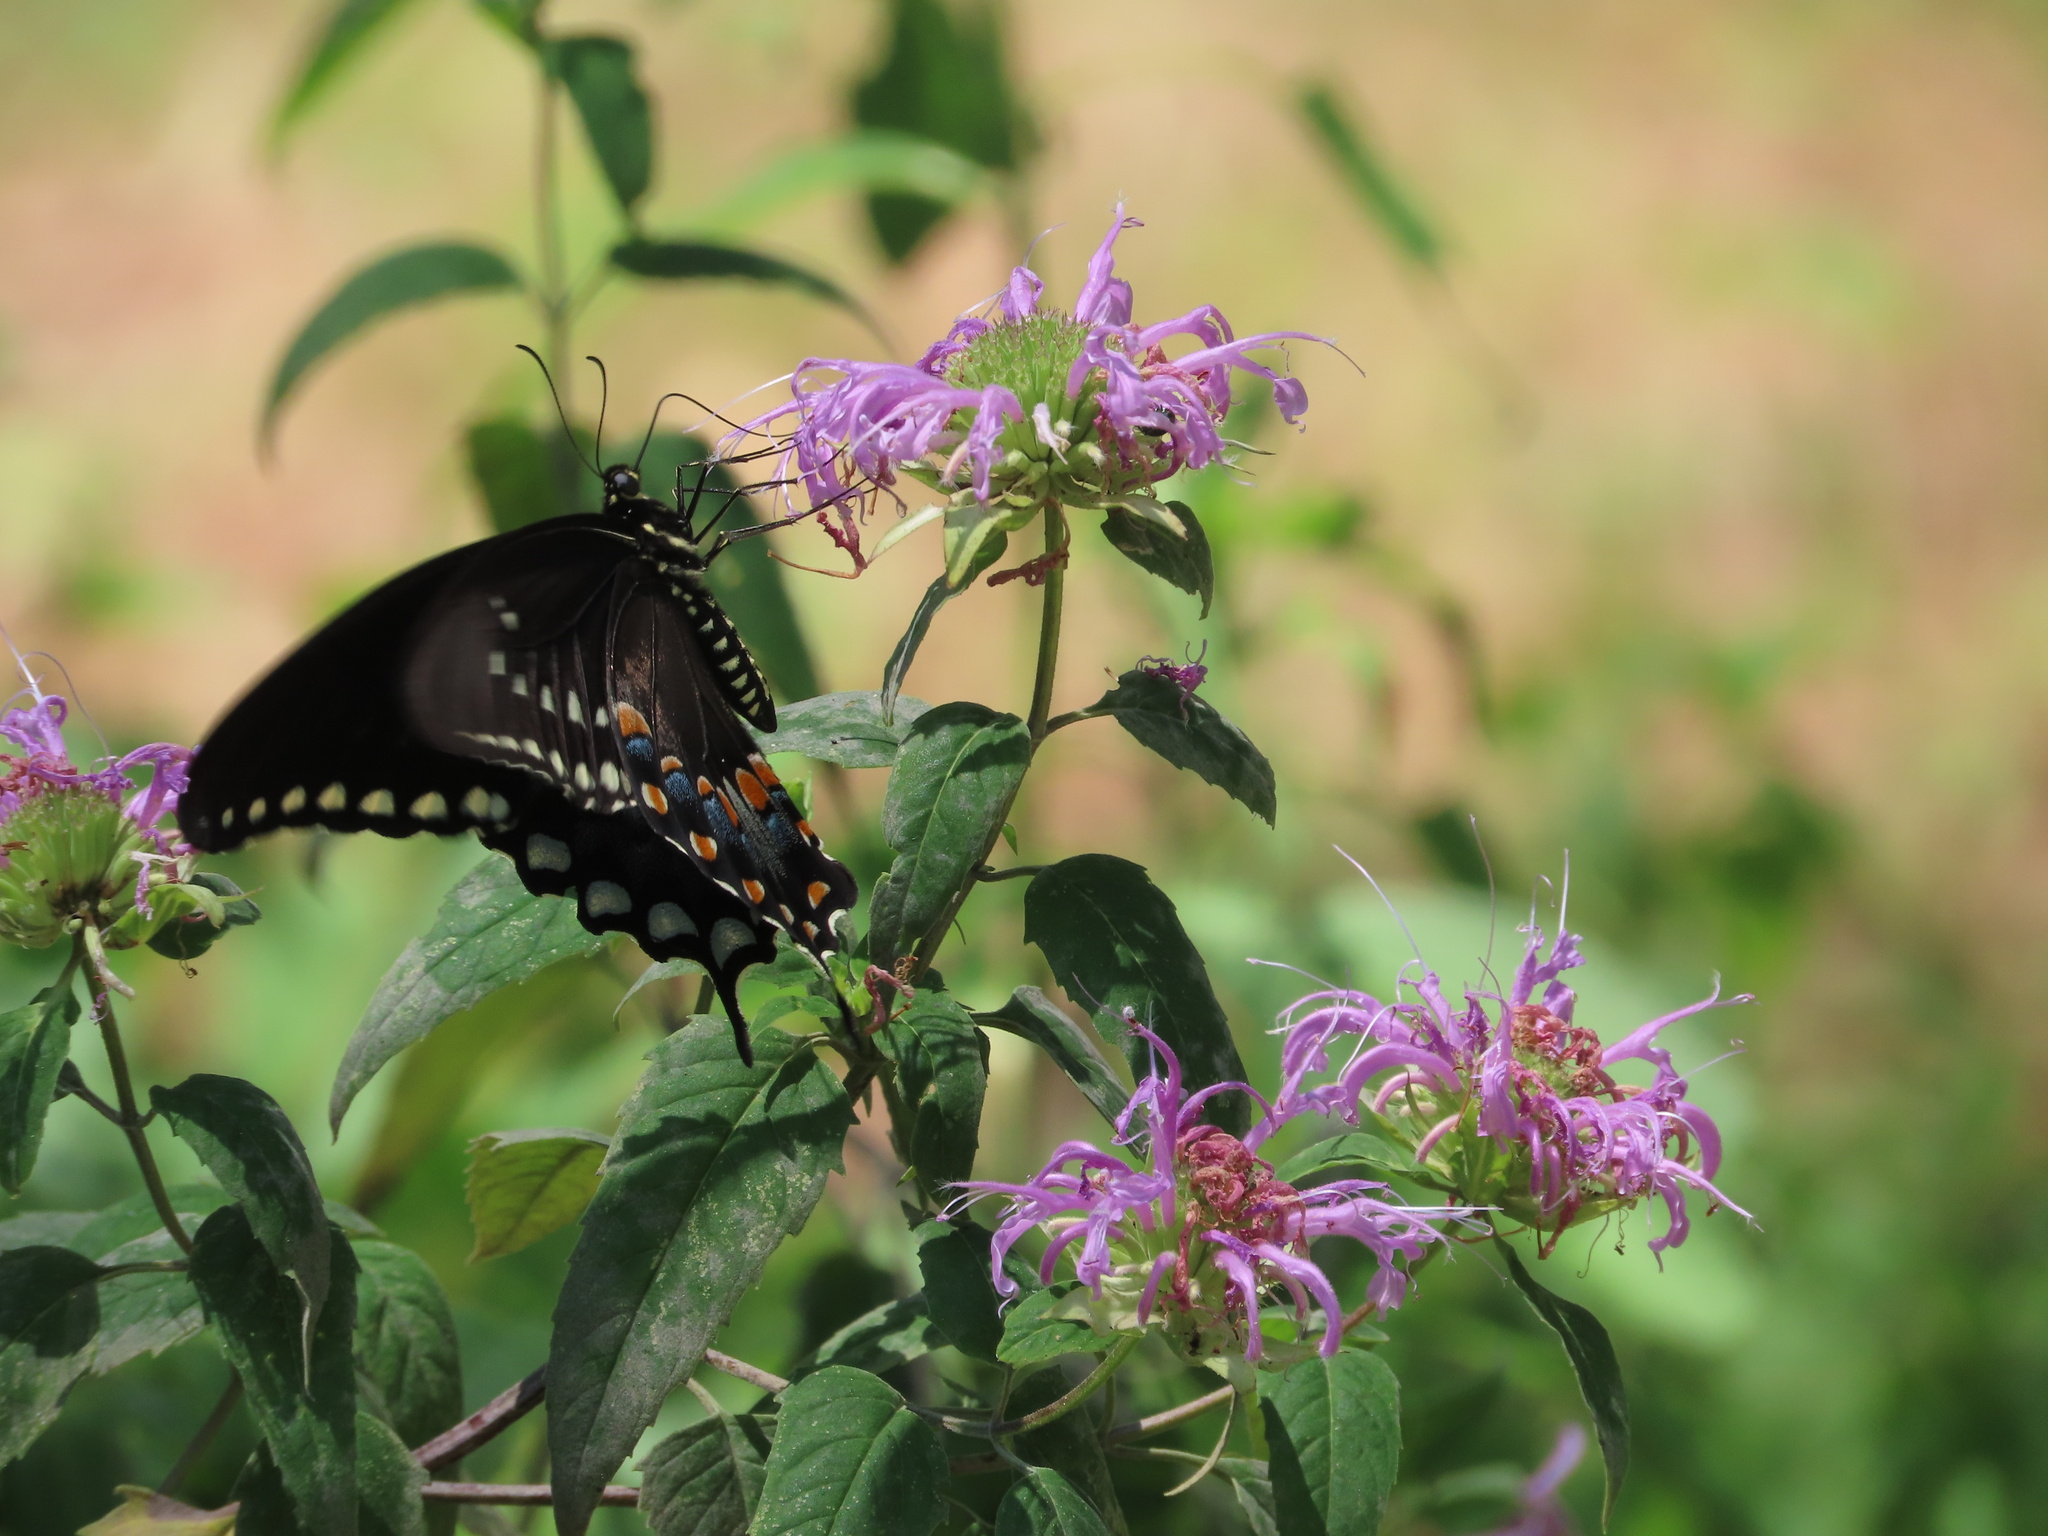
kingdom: Animalia
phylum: Arthropoda
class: Insecta
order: Lepidoptera
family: Papilionidae
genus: Papilio
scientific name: Papilio troilus
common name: Spicebush swallowtail
